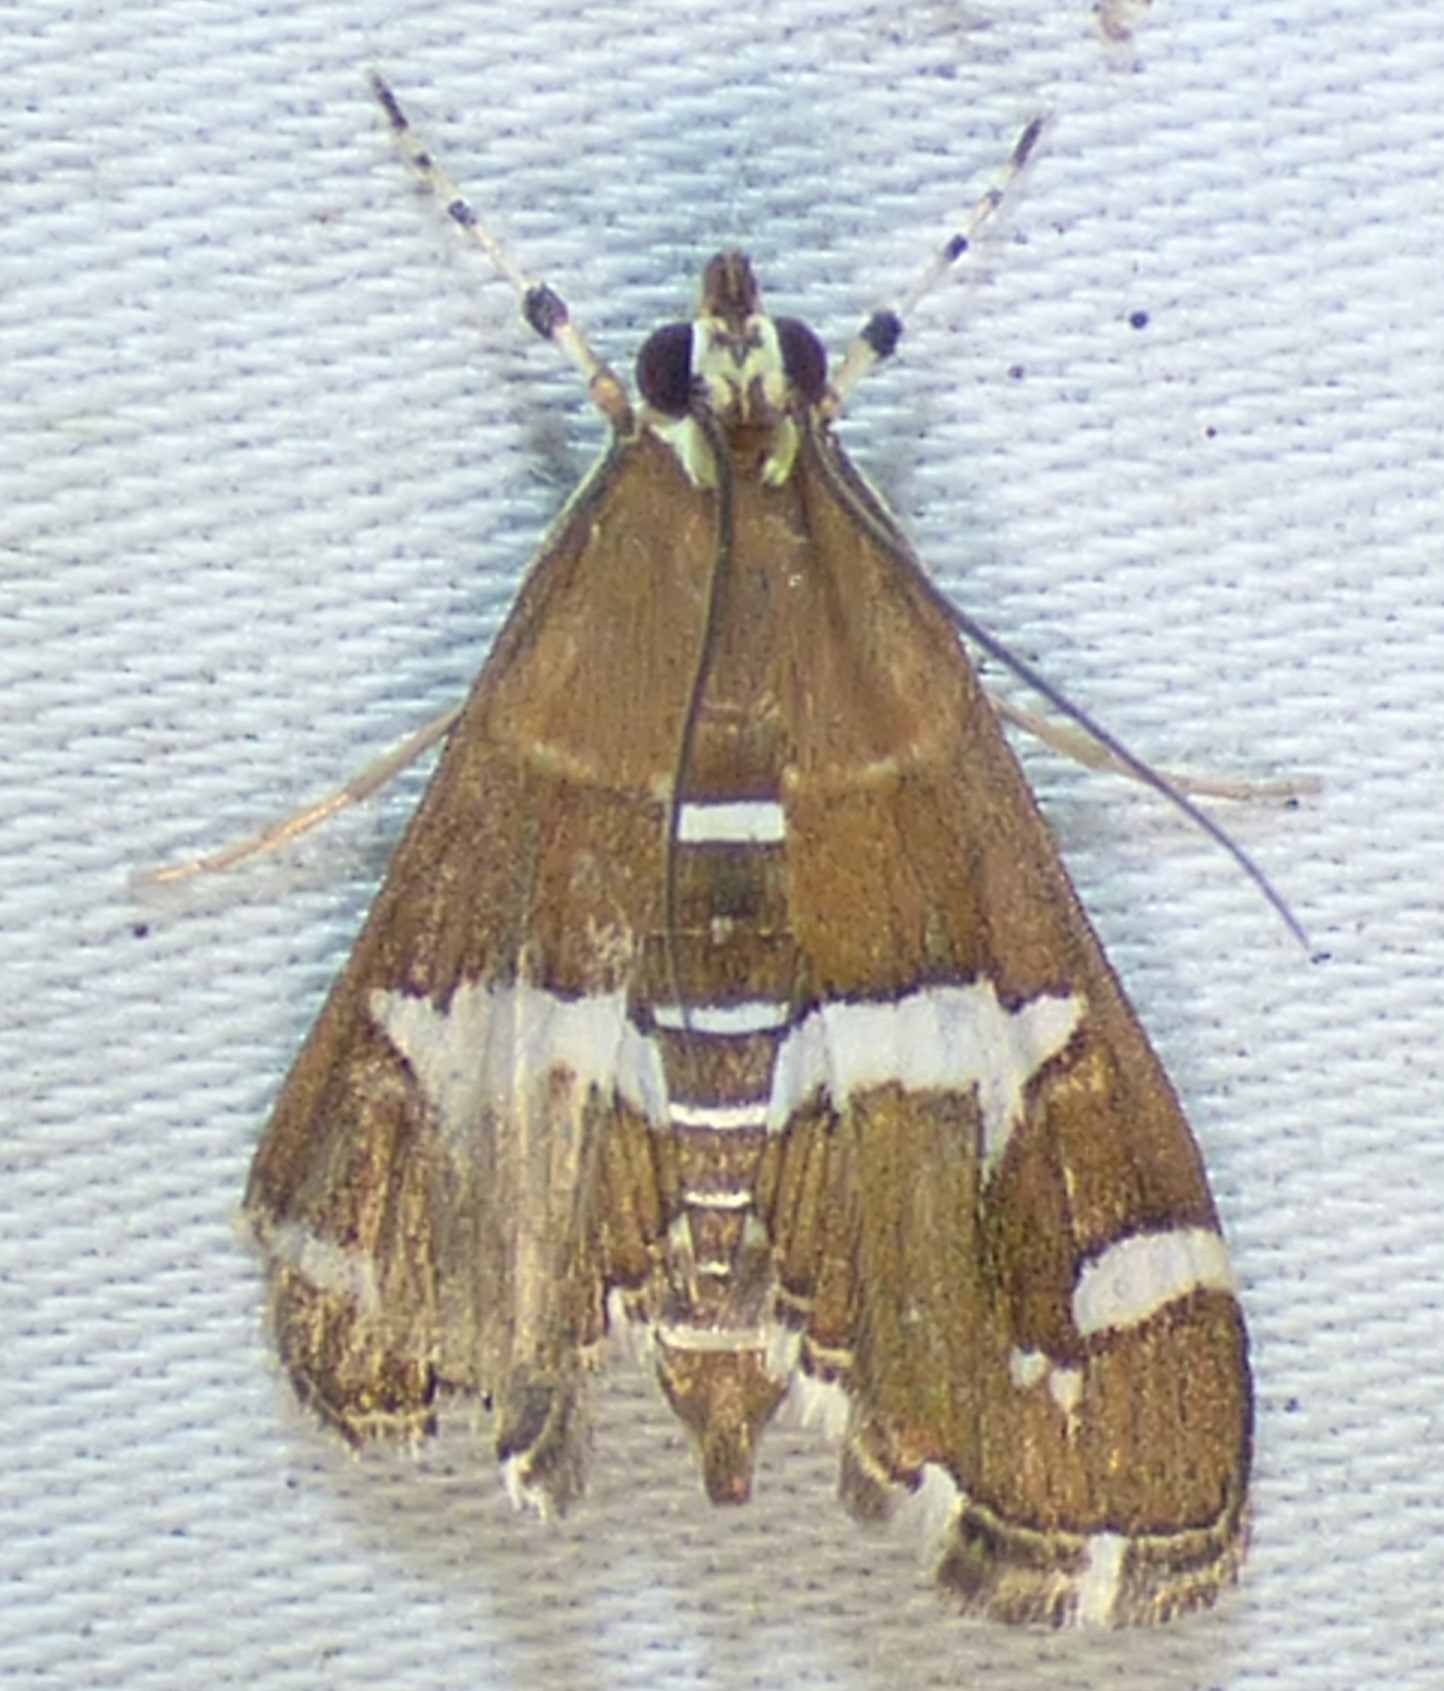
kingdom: Animalia
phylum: Arthropoda
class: Insecta
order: Lepidoptera
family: Crambidae
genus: Spoladea
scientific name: Spoladea recurvalis
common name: Beet webworm moth
